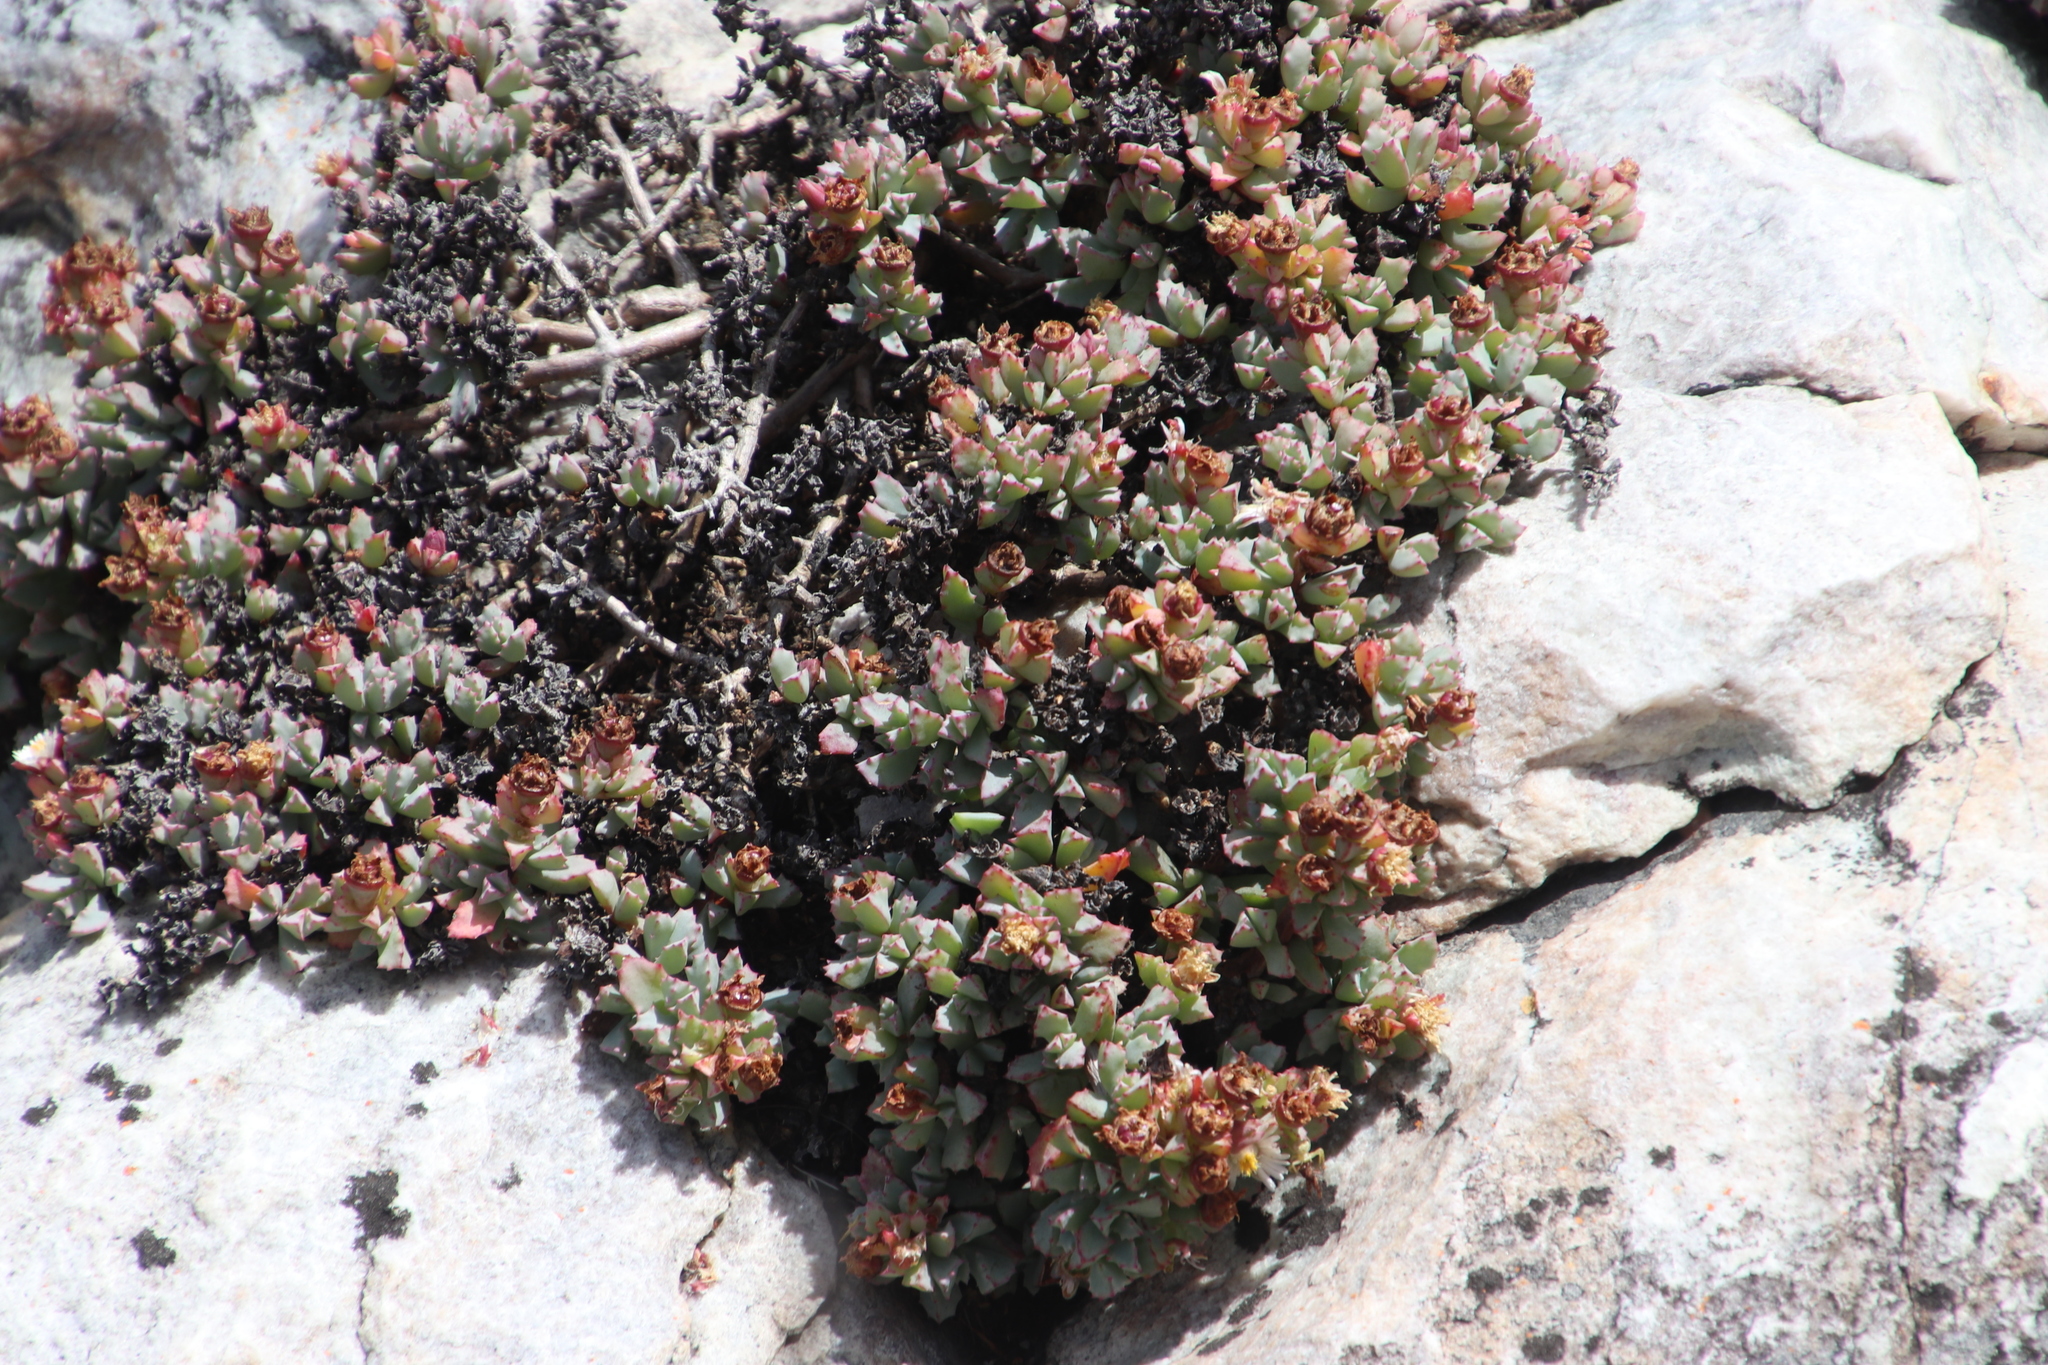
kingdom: Plantae
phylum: Tracheophyta
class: Magnoliopsida
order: Caryophyllales
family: Aizoaceae
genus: Oscularia
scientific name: Oscularia deltoides
